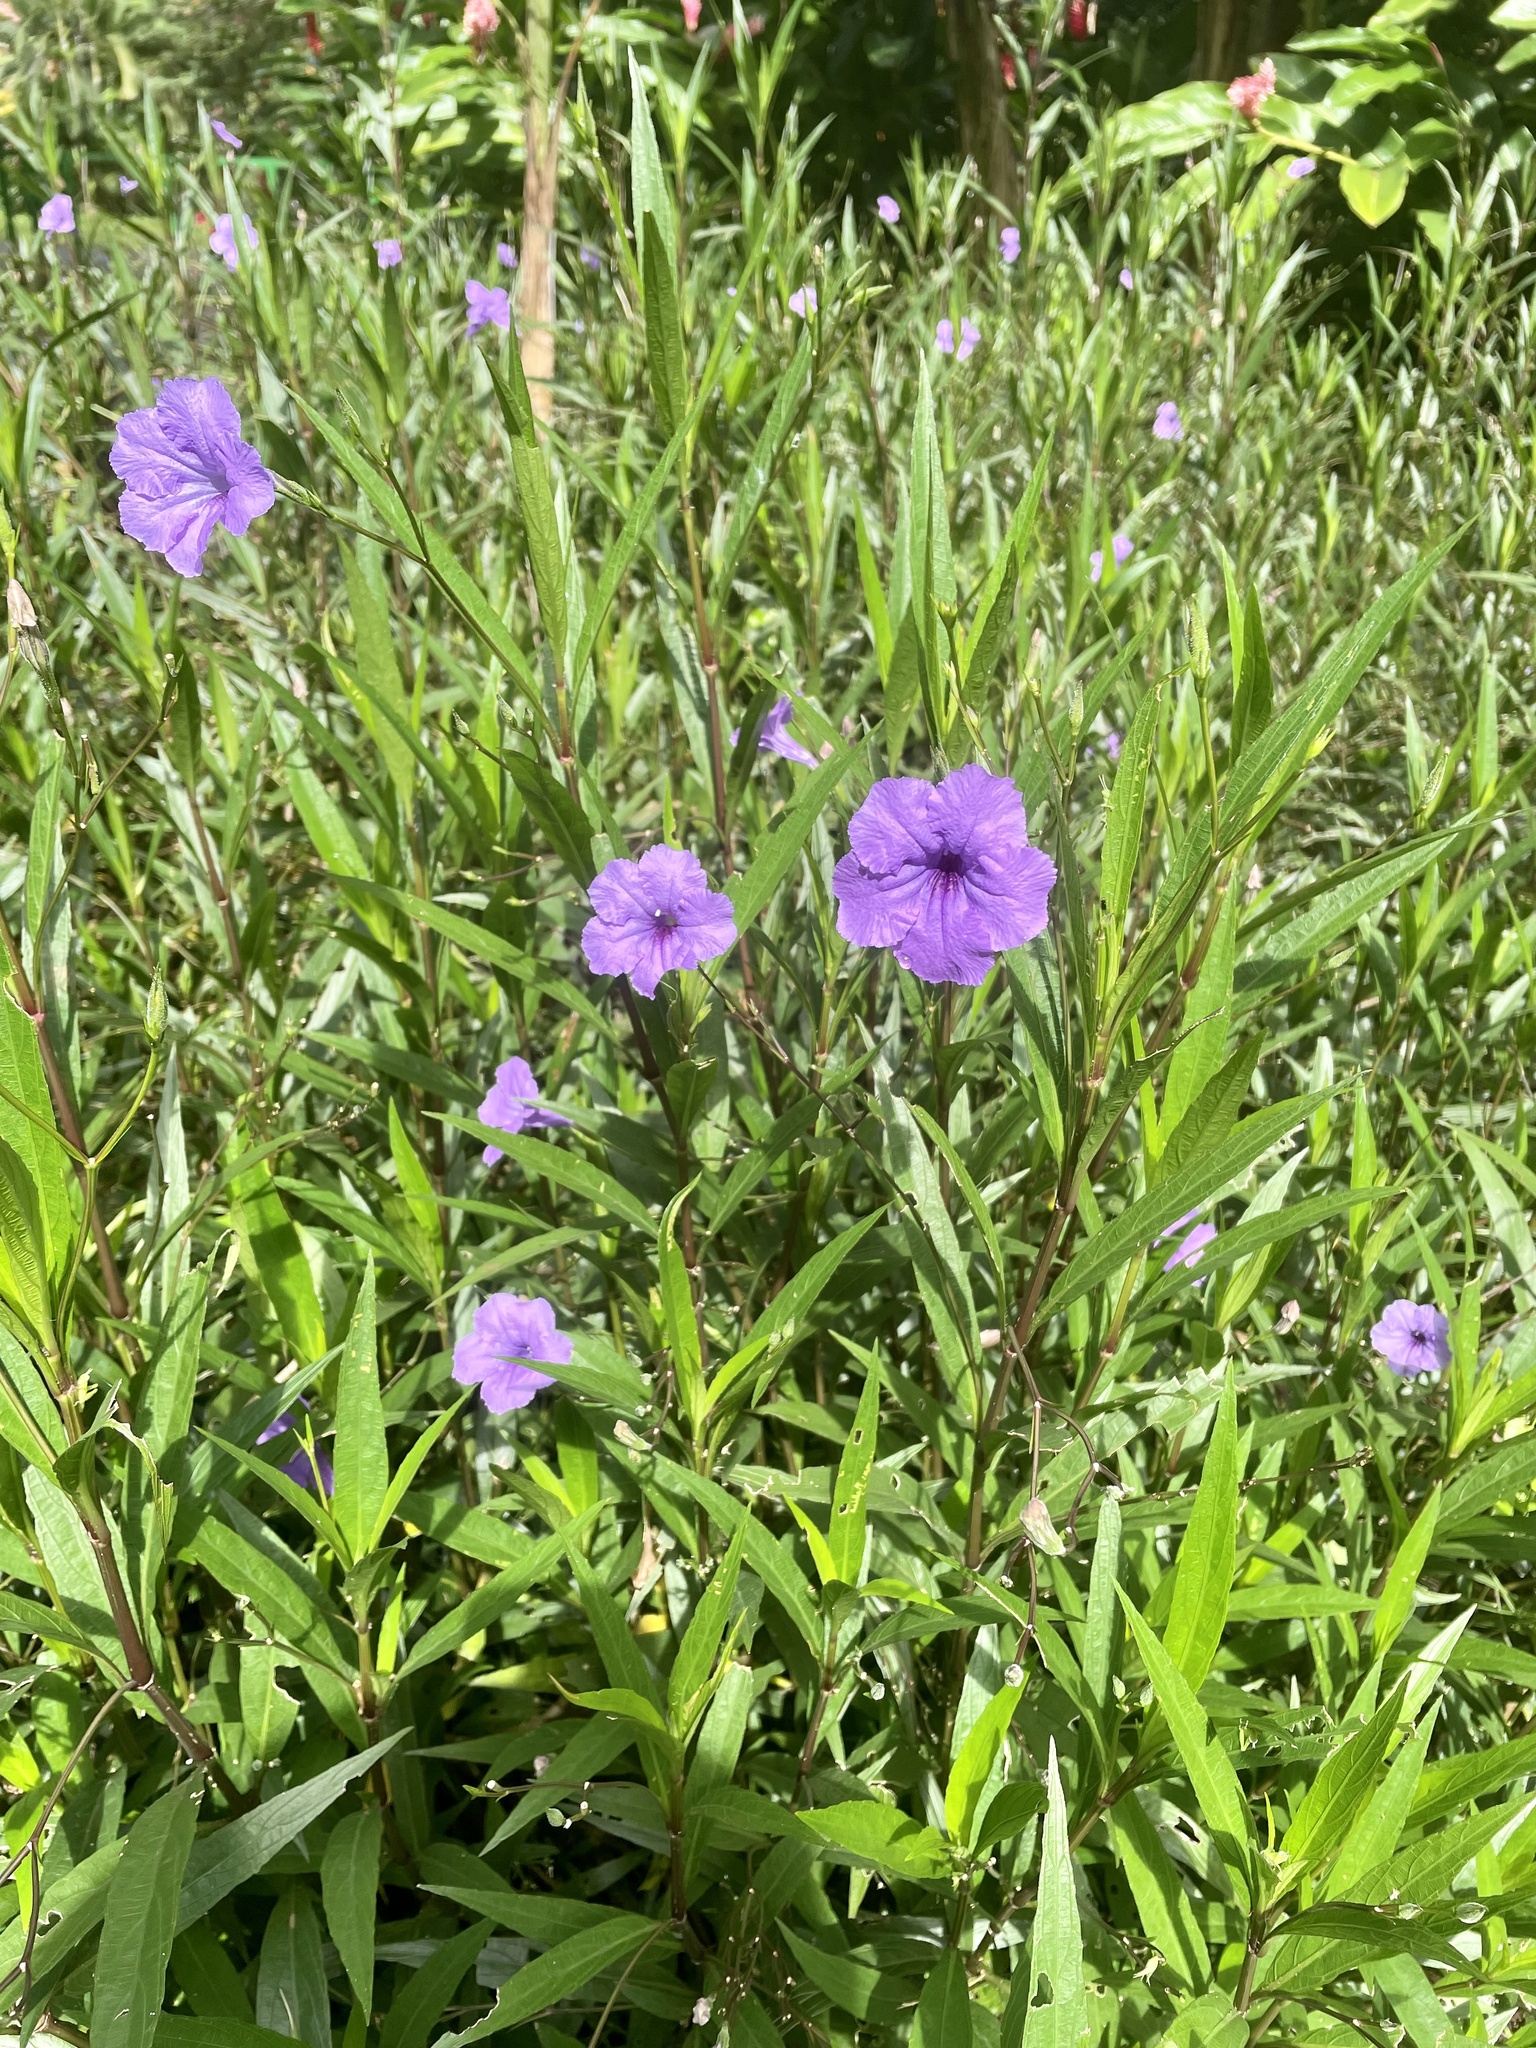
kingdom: Plantae
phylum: Tracheophyta
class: Magnoliopsida
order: Lamiales
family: Acanthaceae
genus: Ruellia
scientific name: Ruellia simplex
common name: Softseed wild petunia
